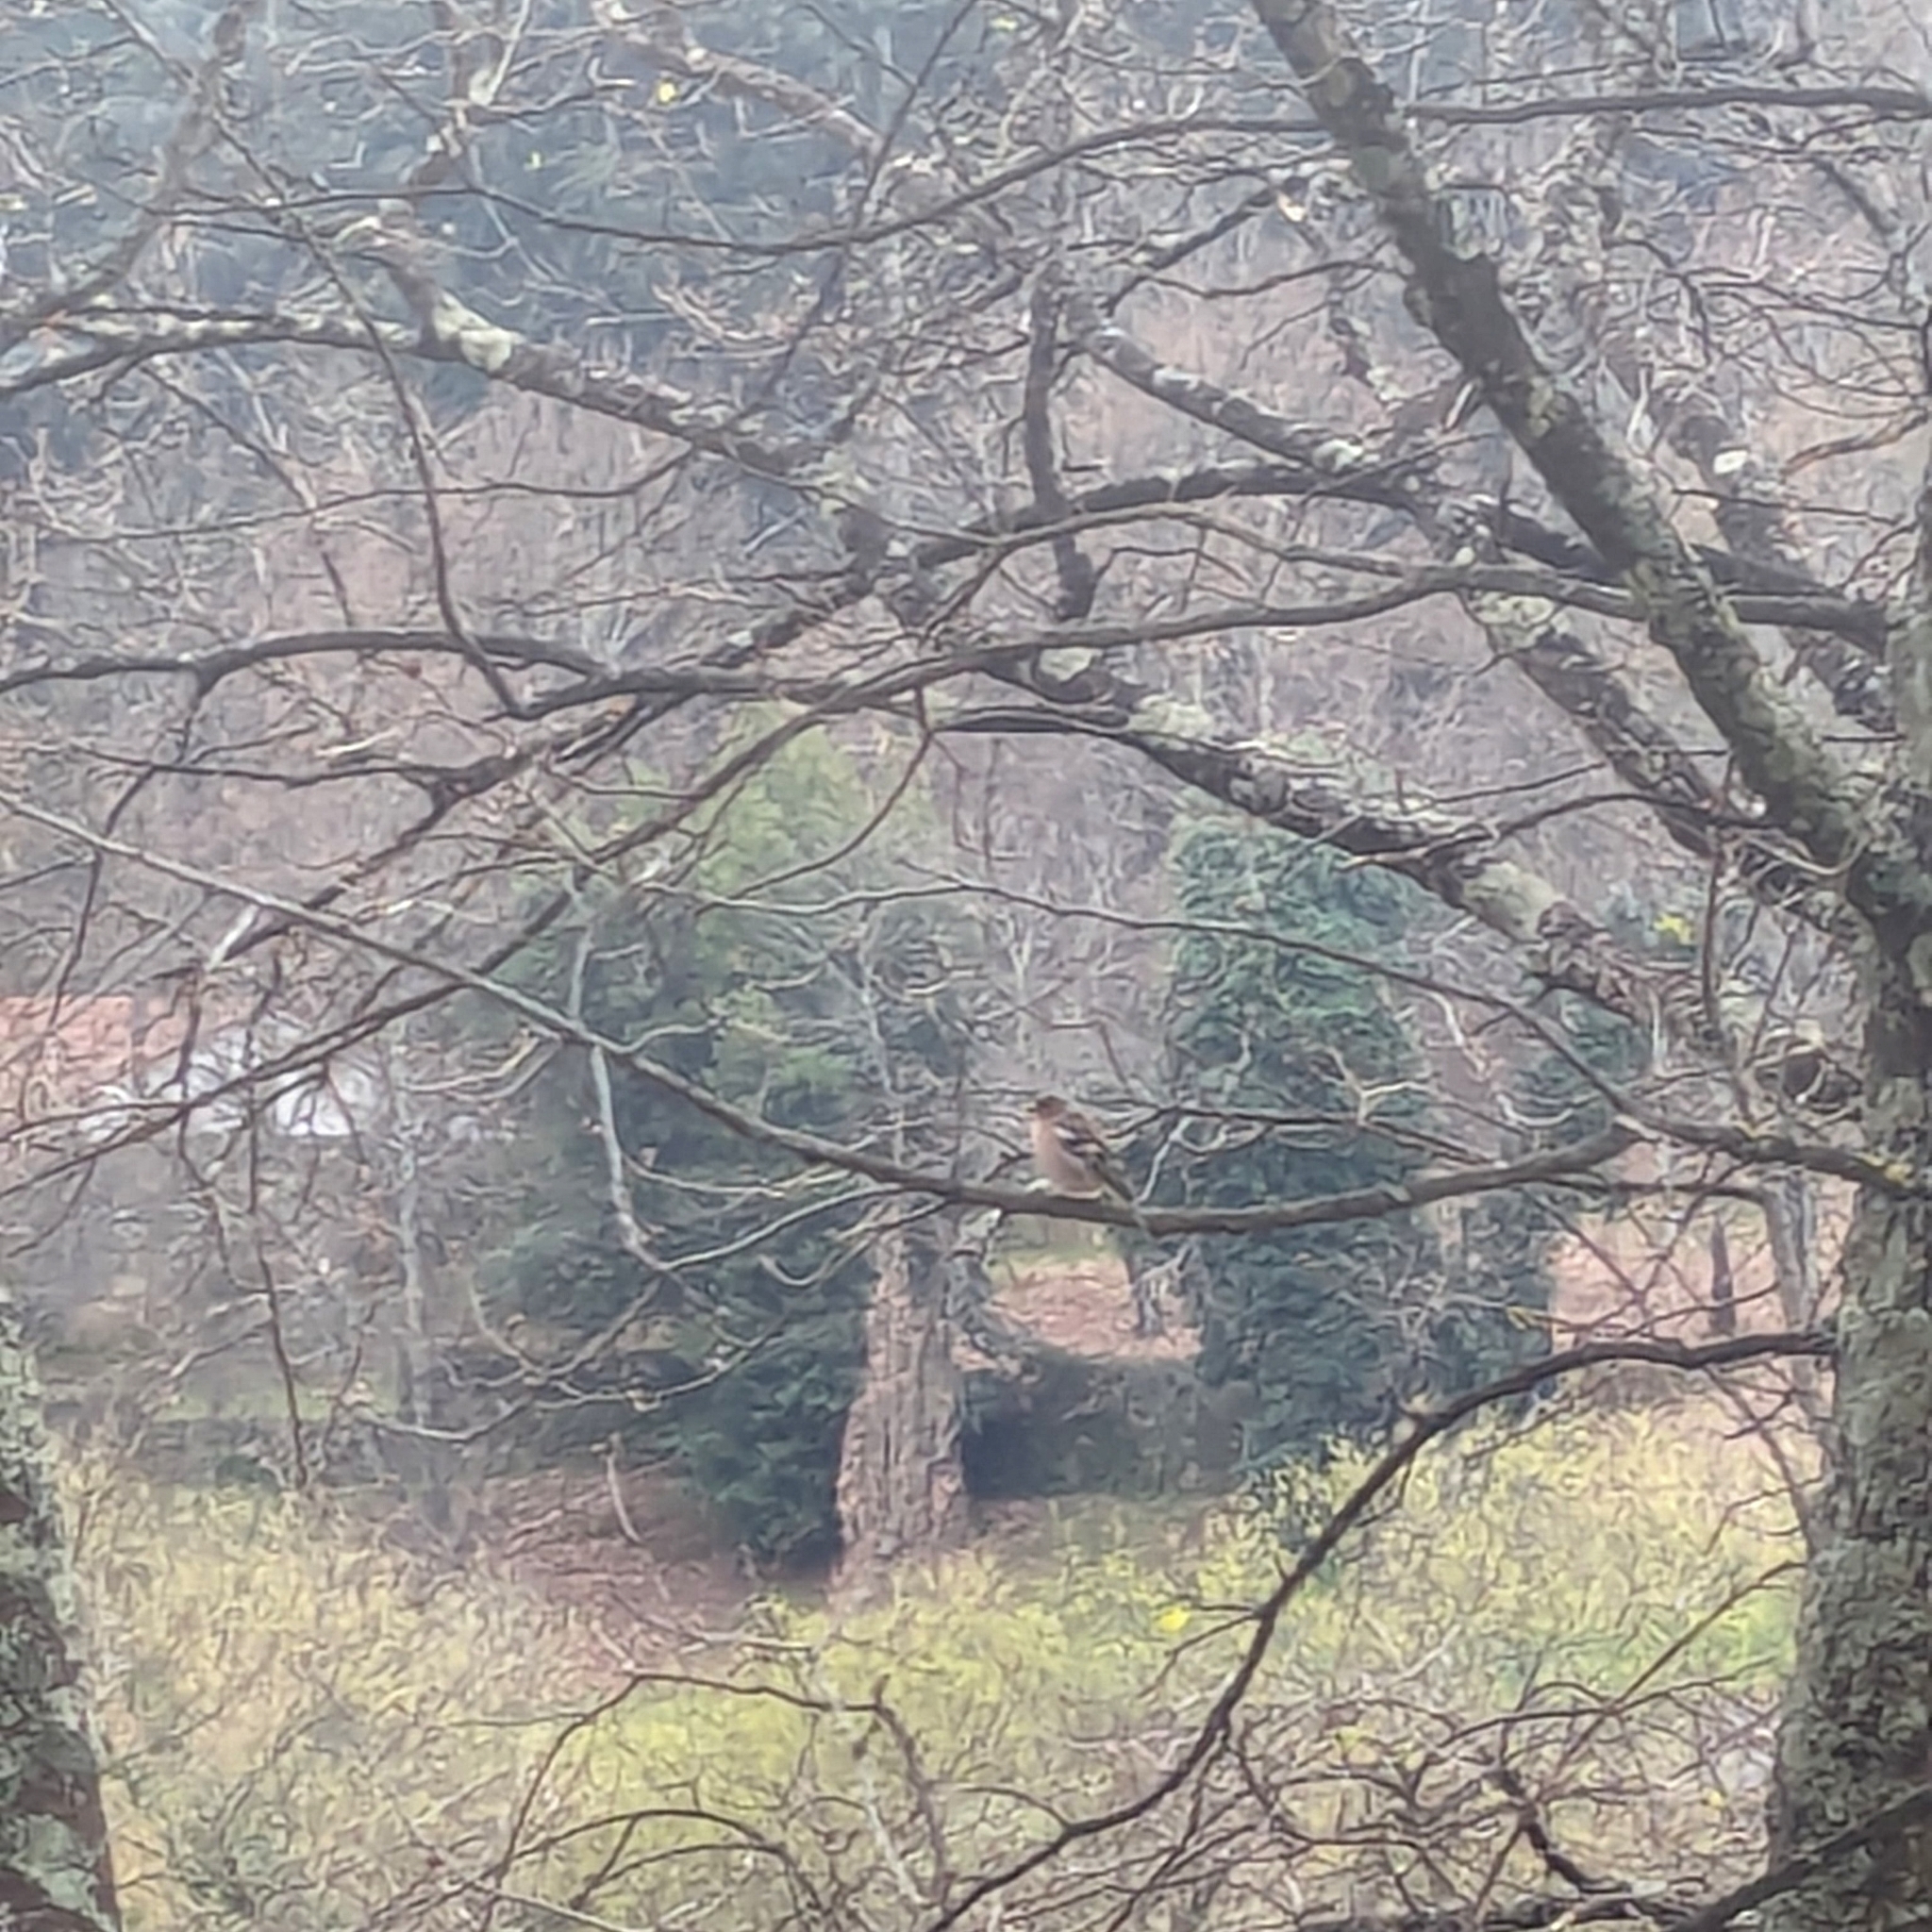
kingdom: Animalia
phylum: Chordata
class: Aves
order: Passeriformes
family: Fringillidae
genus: Fringilla
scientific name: Fringilla coelebs
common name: Common chaffinch
